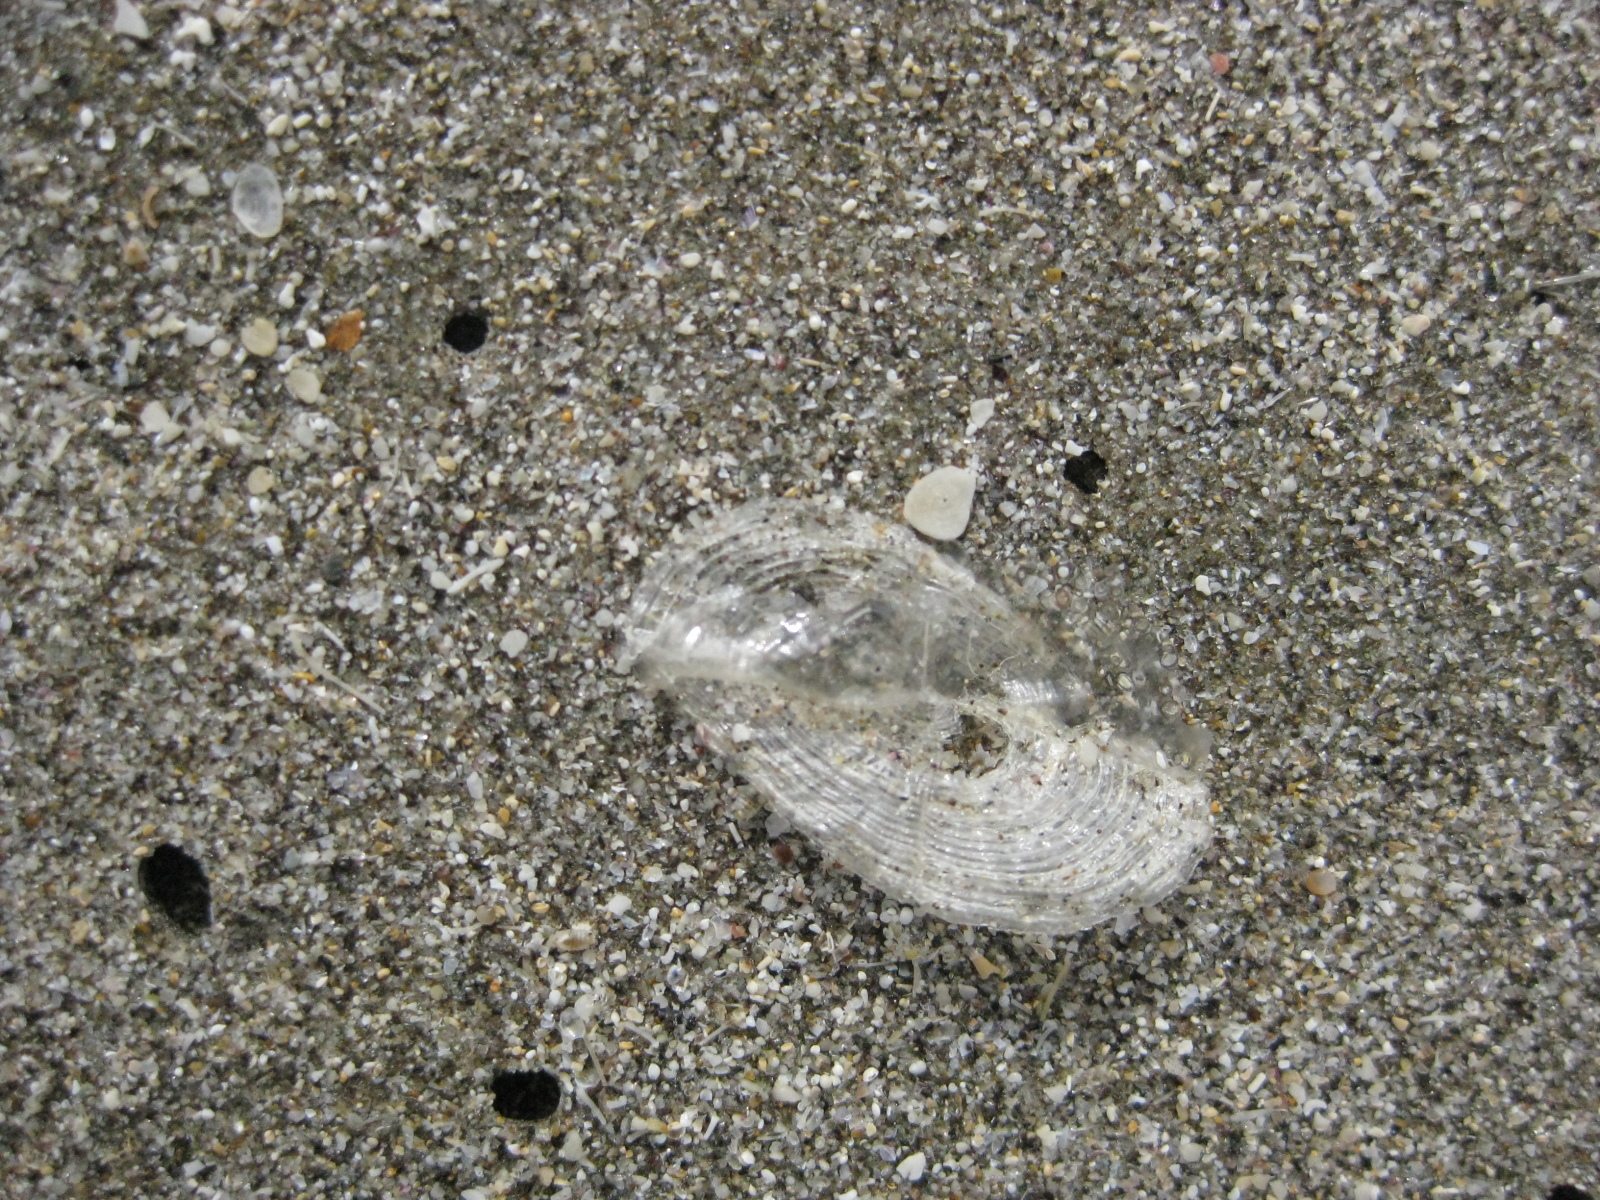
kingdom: Animalia
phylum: Cnidaria
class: Hydrozoa
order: Anthoathecata
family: Porpitidae
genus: Velella
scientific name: Velella velella
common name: By-the-wind-sailor
